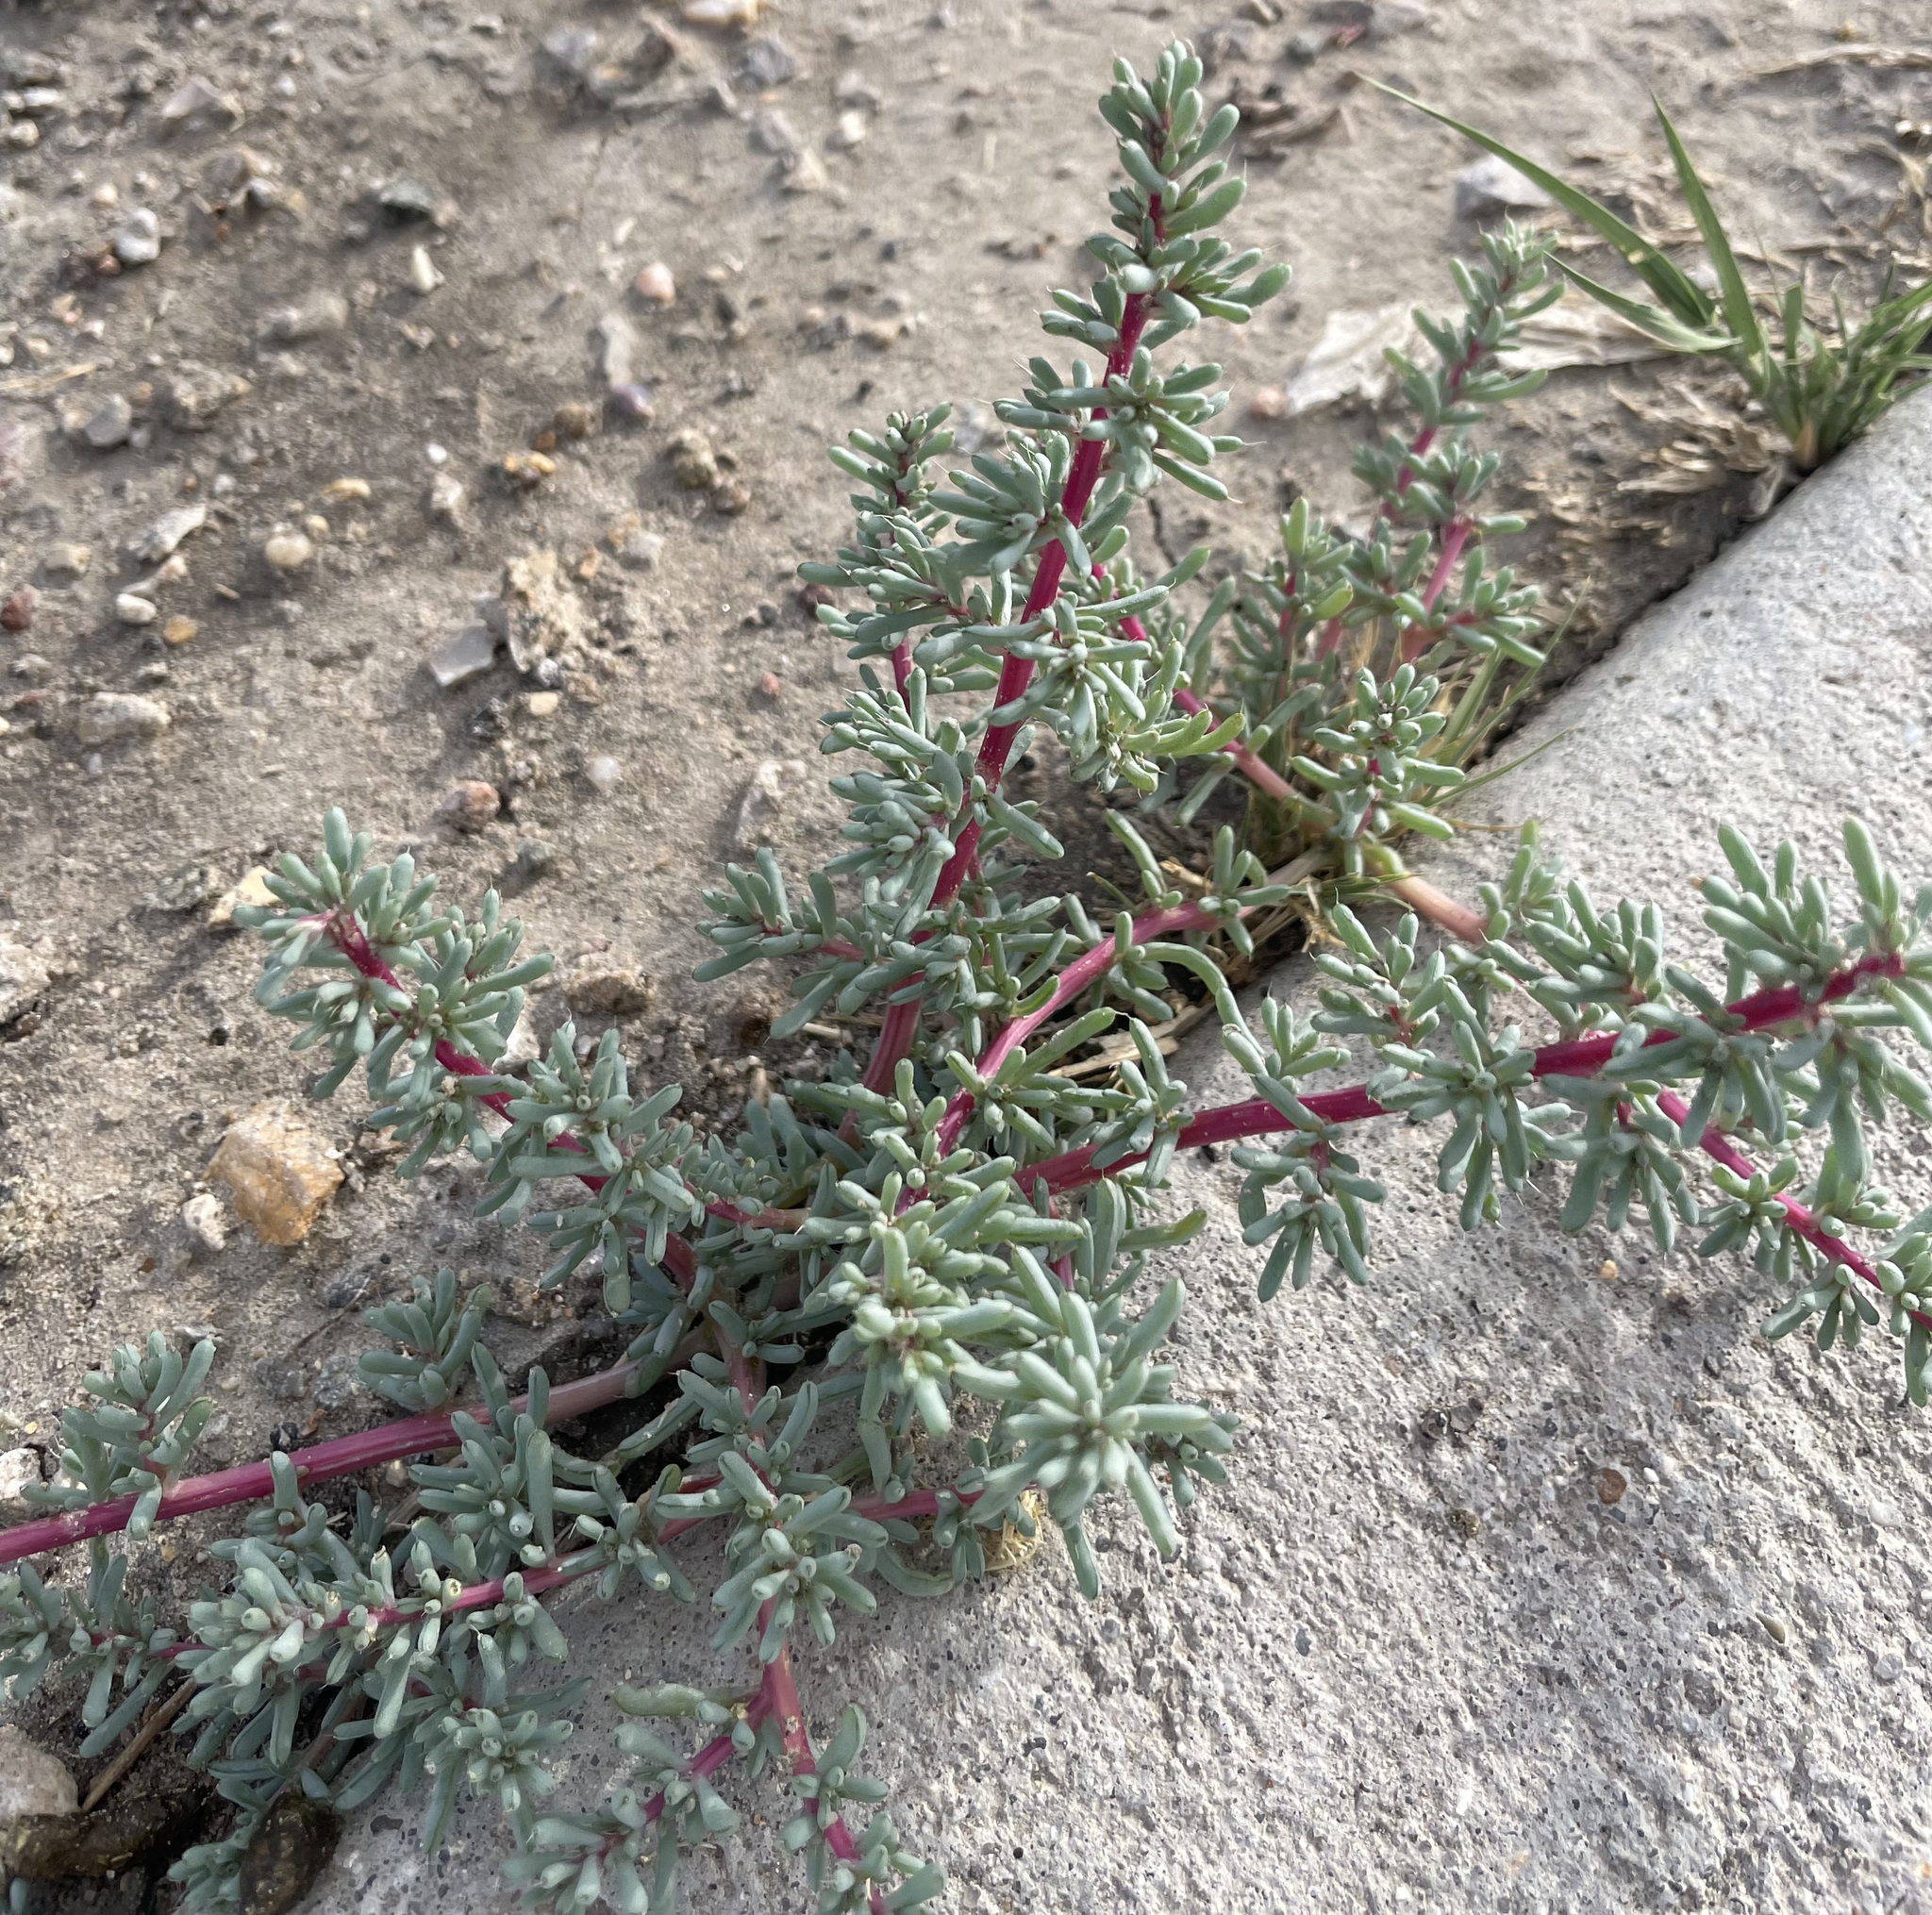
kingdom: Plantae
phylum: Tracheophyta
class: Magnoliopsida
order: Caryophyllales
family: Amaranthaceae
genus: Halogeton
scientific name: Halogeton glomeratus
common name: Saltlover
